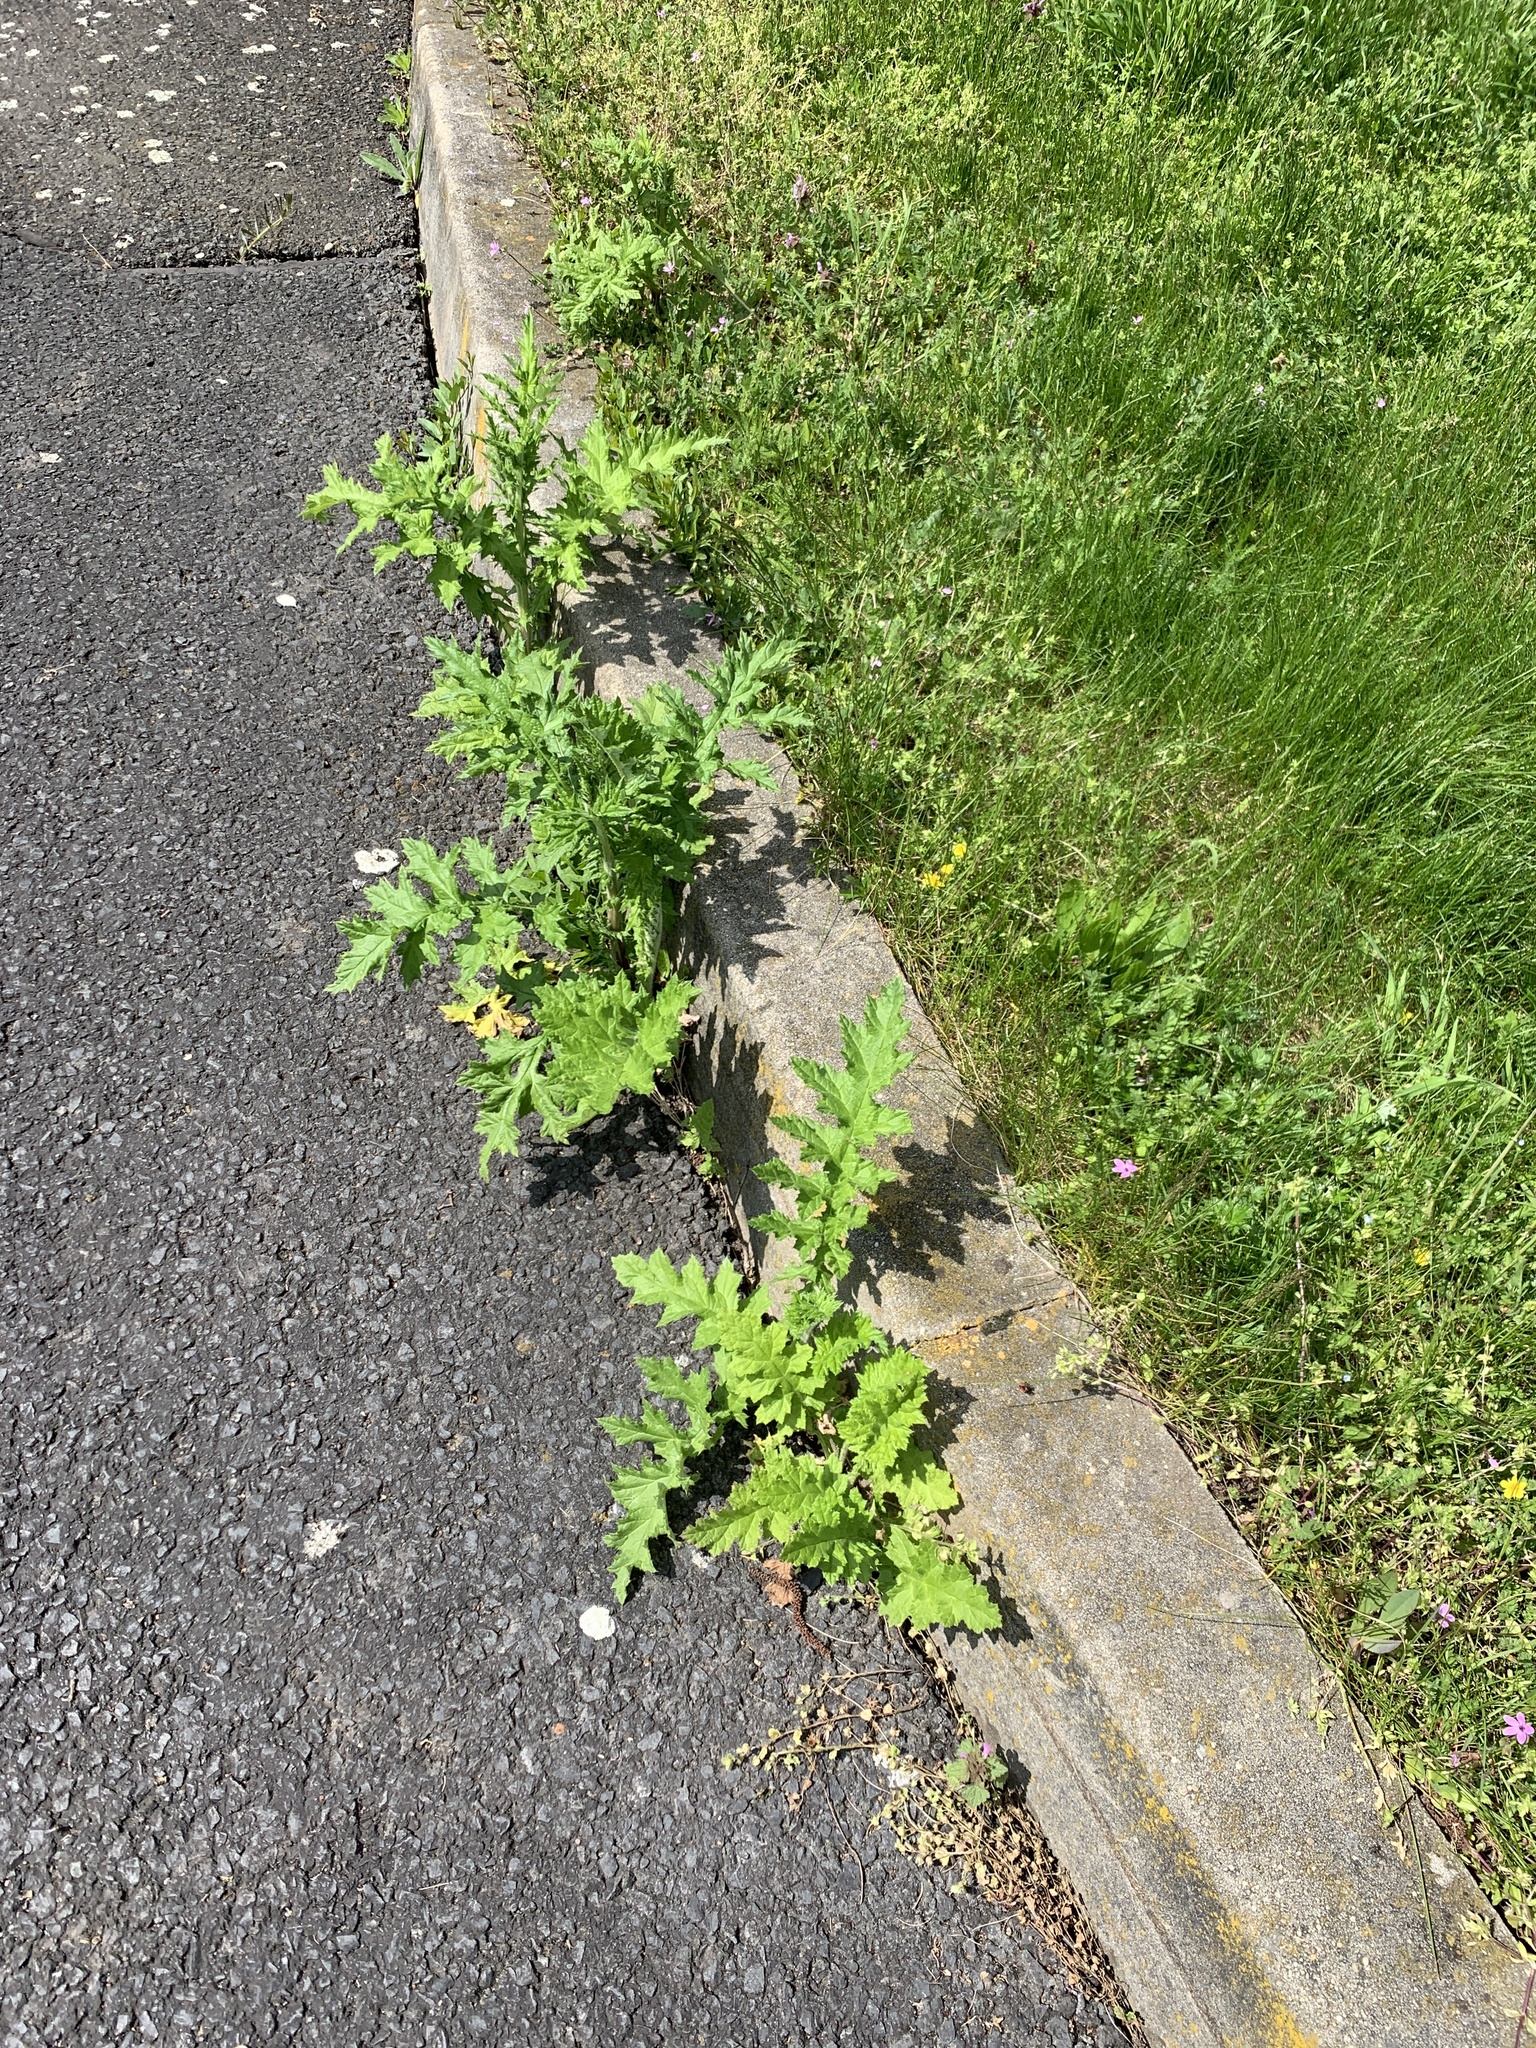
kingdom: Plantae
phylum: Tracheophyta
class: Magnoliopsida
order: Asterales
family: Asteraceae
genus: Echinops
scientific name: Echinops sphaerocephalus
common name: Glandular globe-thistle
